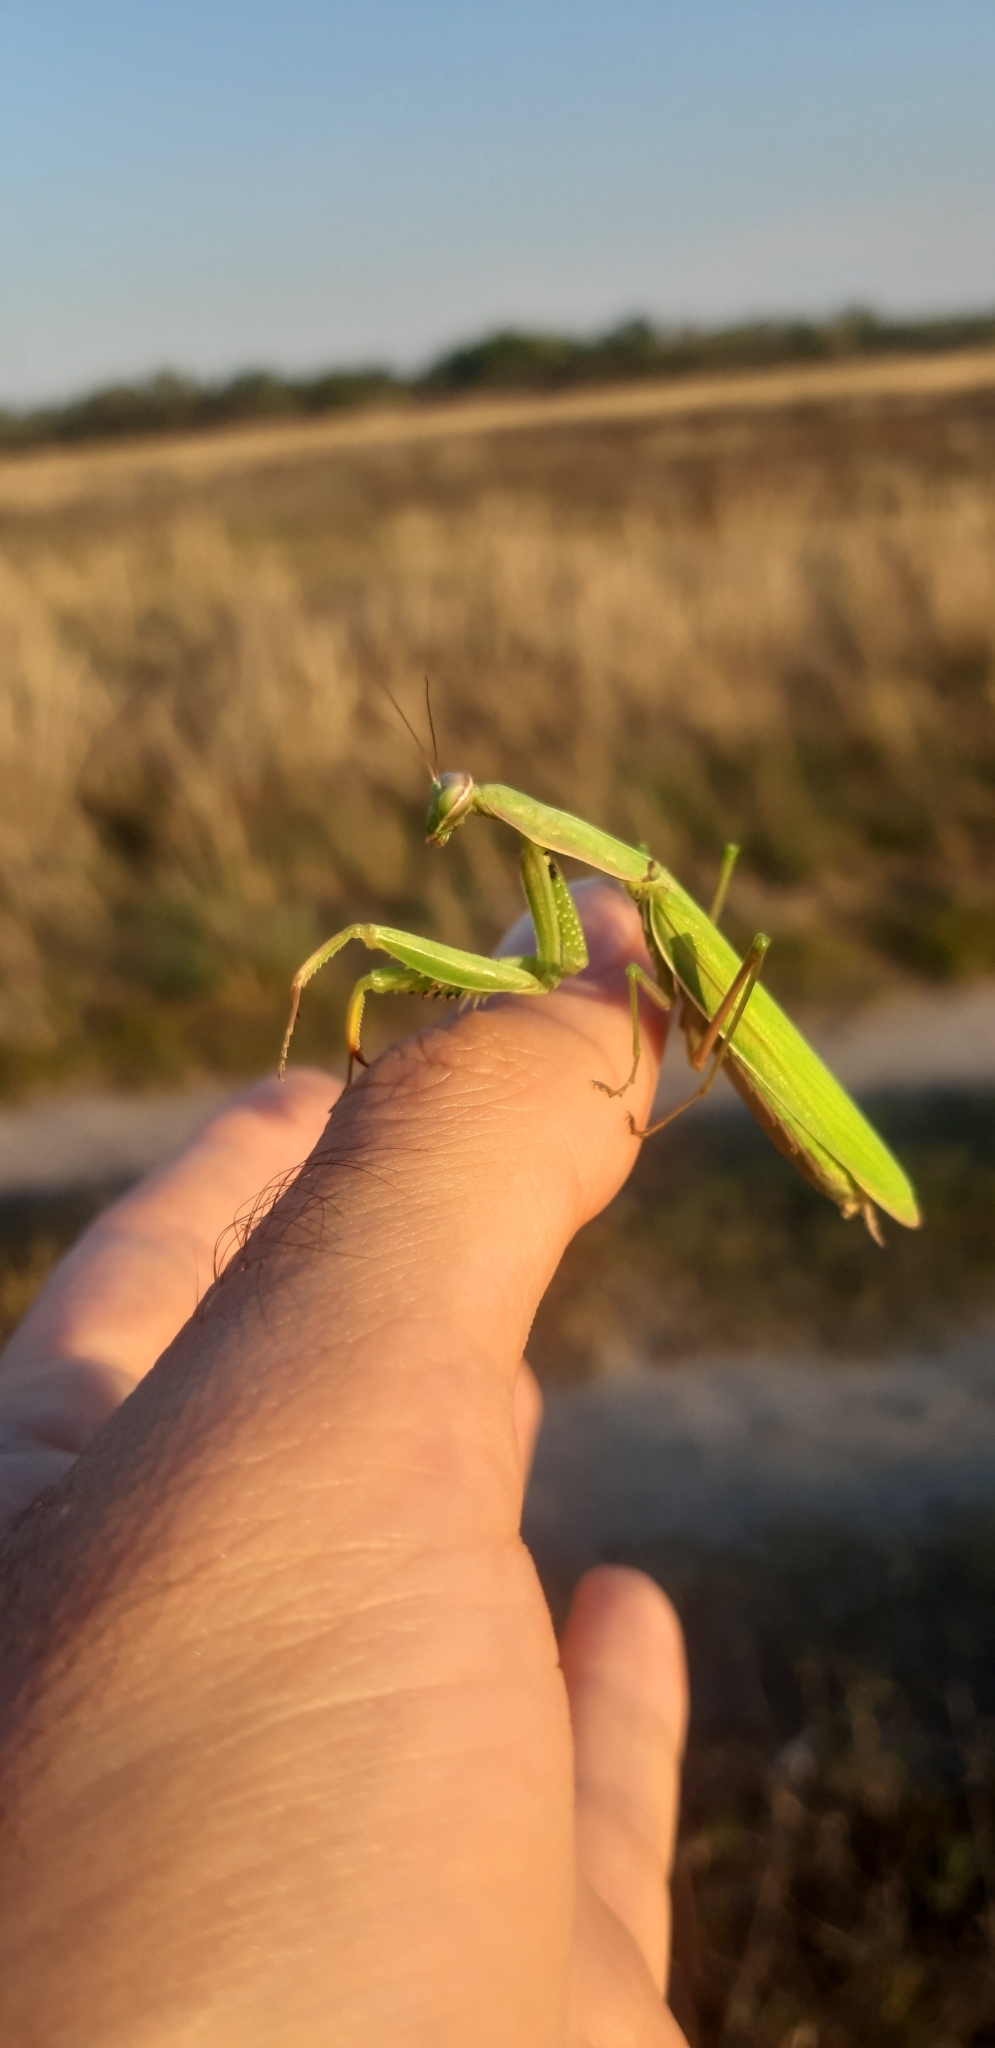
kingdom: Animalia
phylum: Arthropoda
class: Insecta
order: Mantodea
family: Mantidae
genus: Mantis
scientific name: Mantis religiosa
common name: Praying mantis
